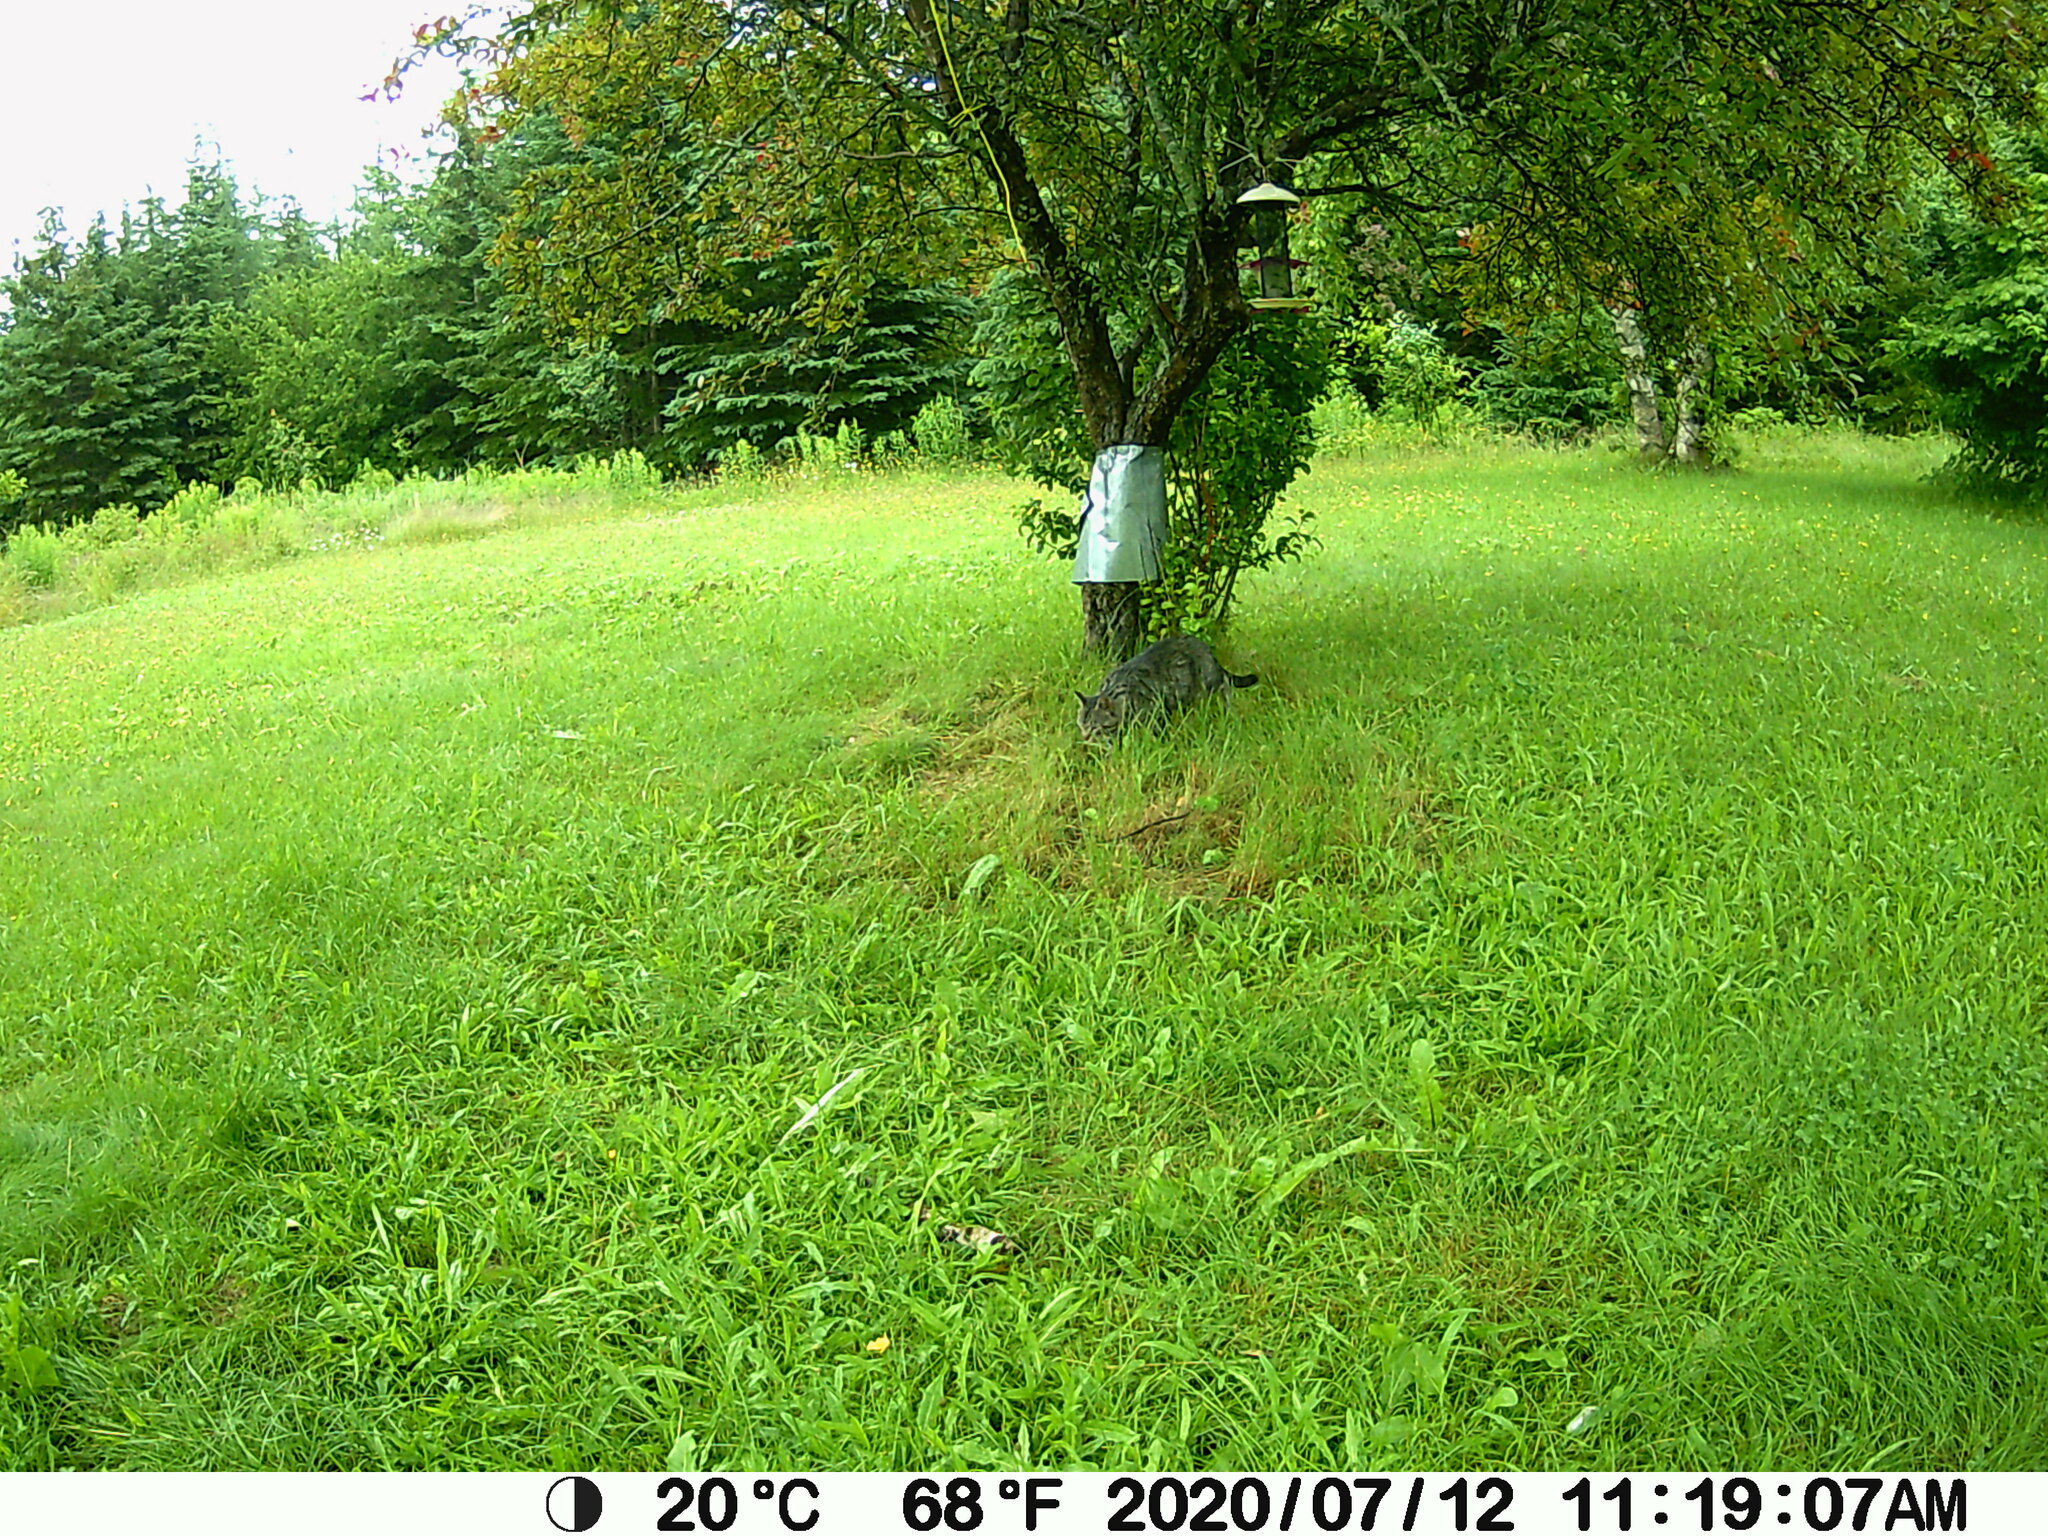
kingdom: Animalia
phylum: Chordata
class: Mammalia
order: Carnivora
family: Felidae
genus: Felis
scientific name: Felis catus
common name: Domestic cat
